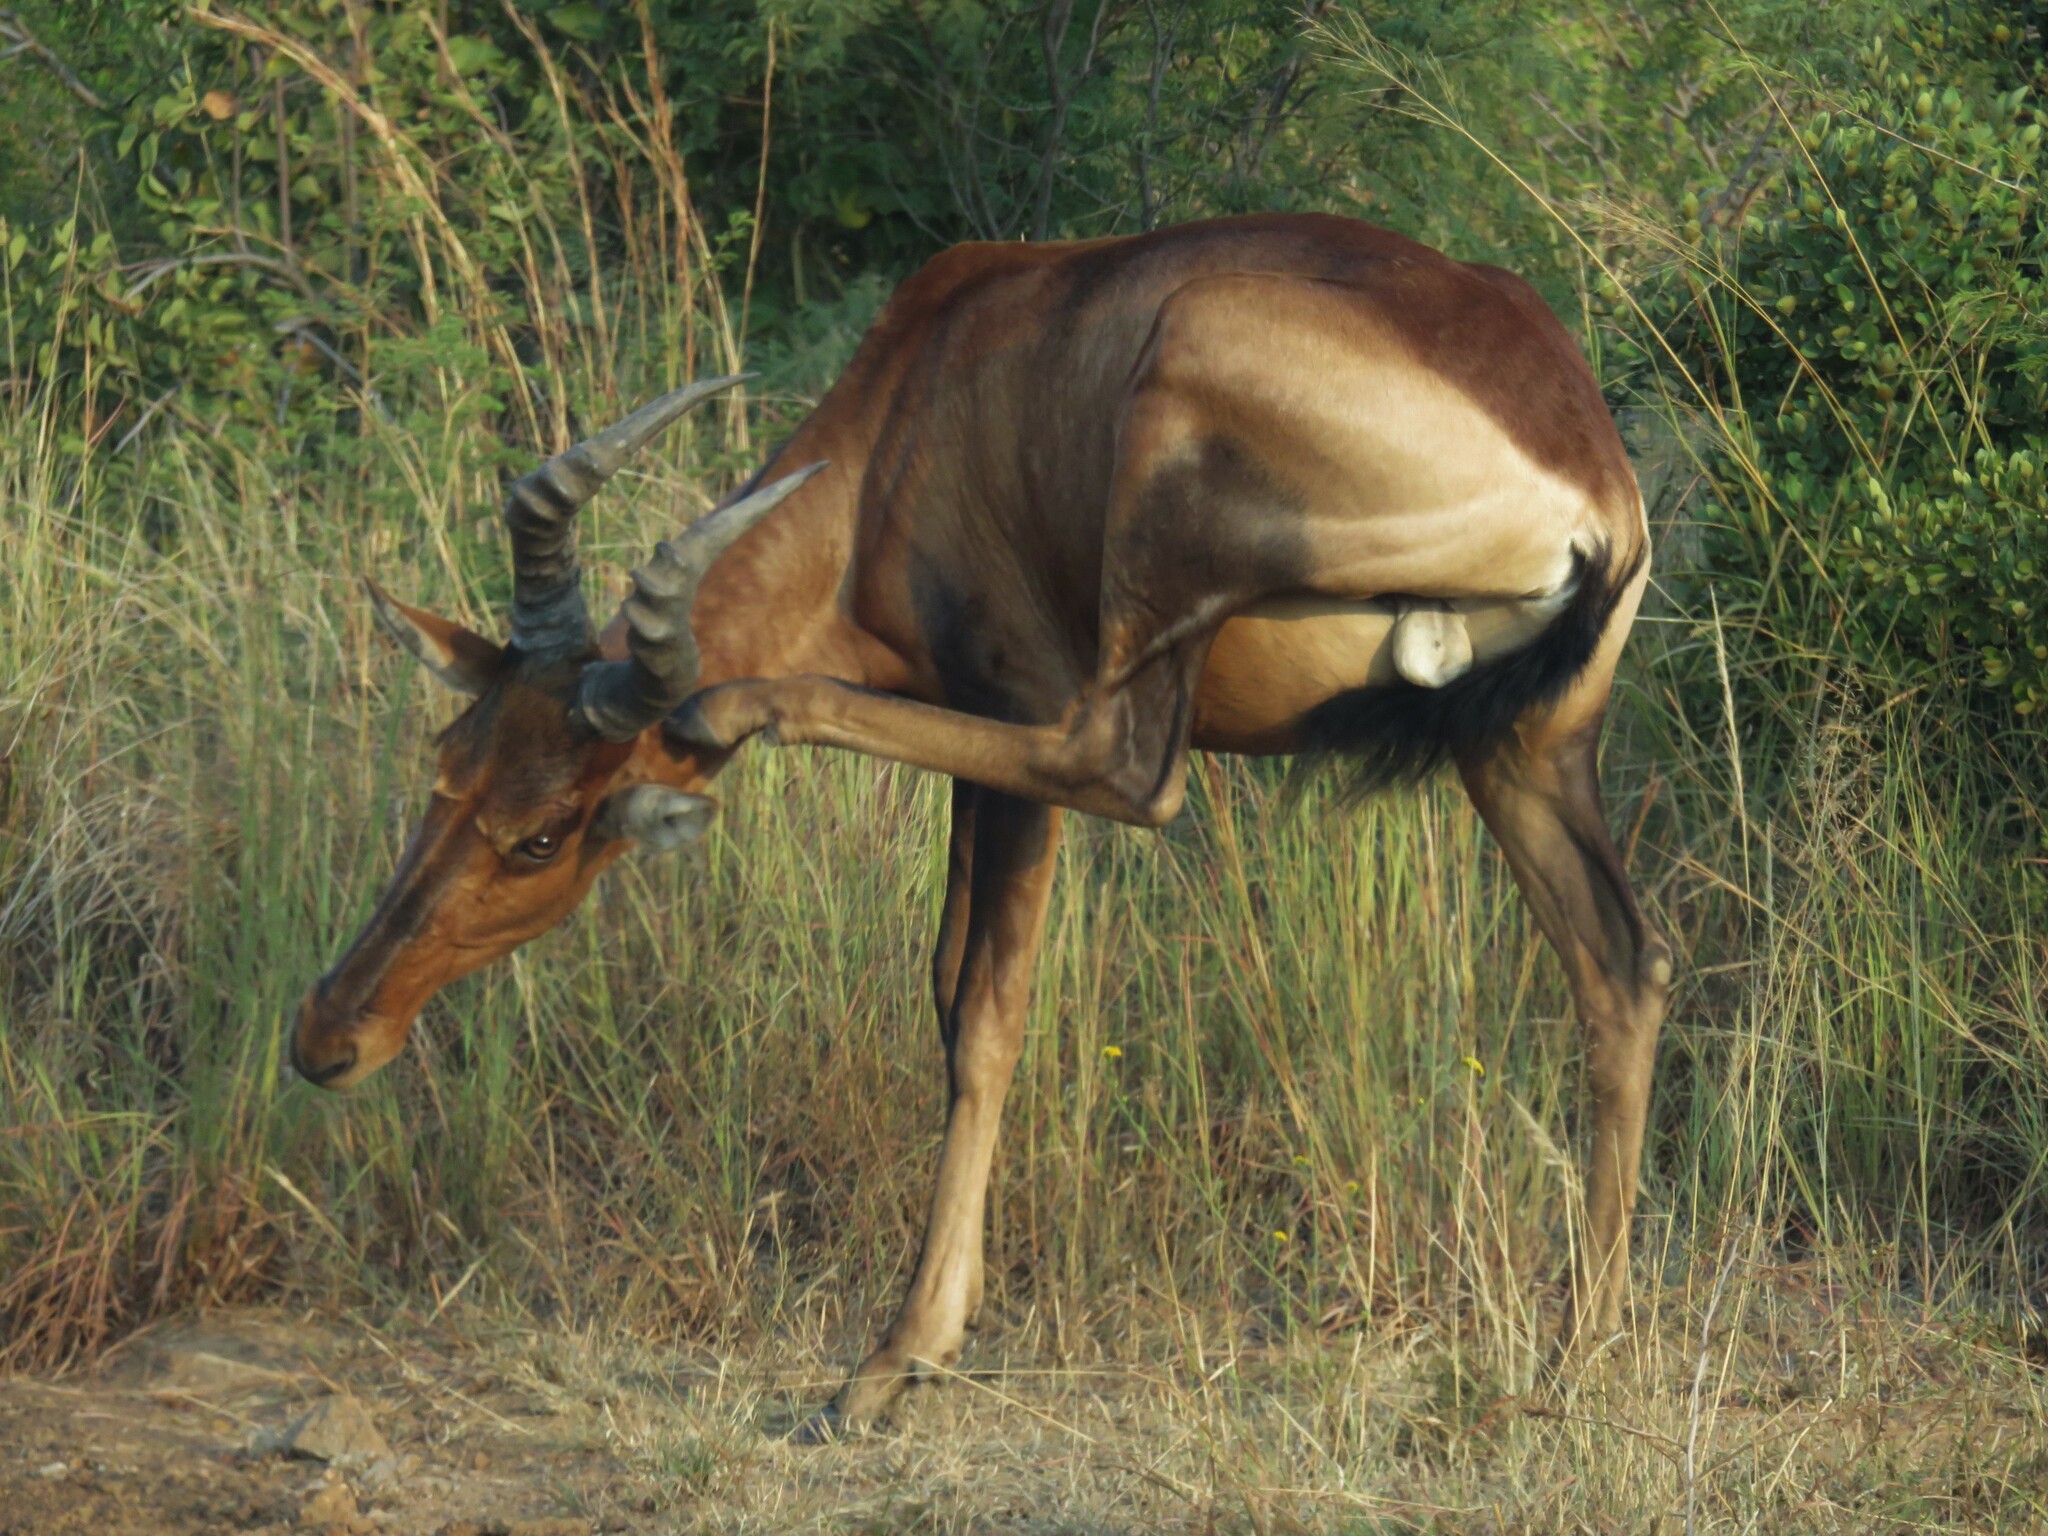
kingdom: Animalia
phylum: Chordata
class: Mammalia
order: Artiodactyla
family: Bovidae
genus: Alcelaphus
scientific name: Alcelaphus caama
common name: Red hartebeest
